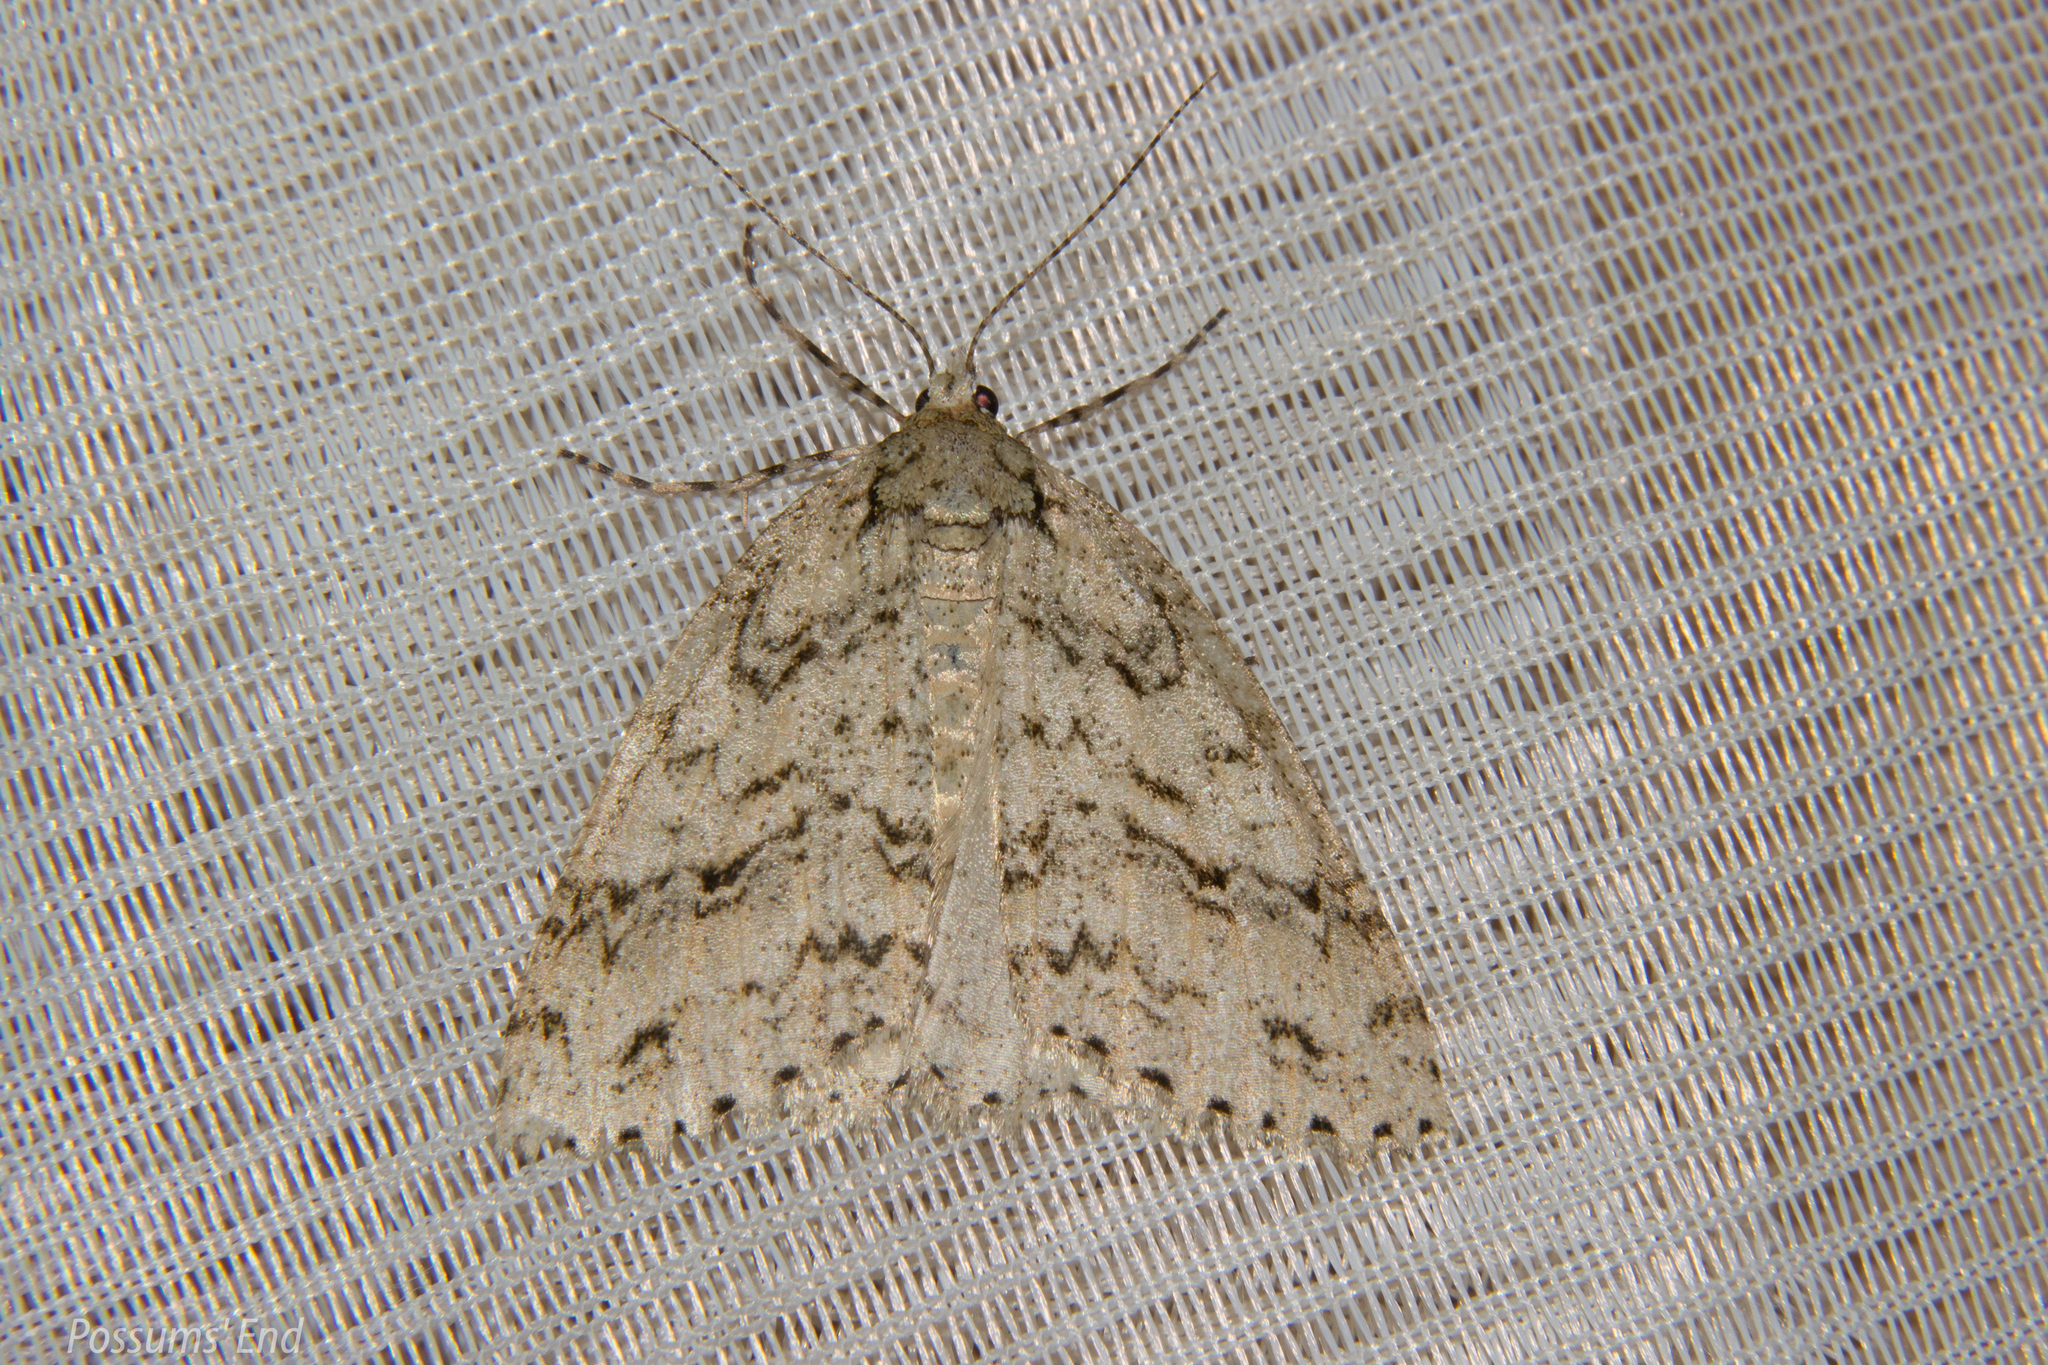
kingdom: Animalia
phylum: Arthropoda
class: Insecta
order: Lepidoptera
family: Geometridae
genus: Pseudocoremia
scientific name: Pseudocoremia rudisata
